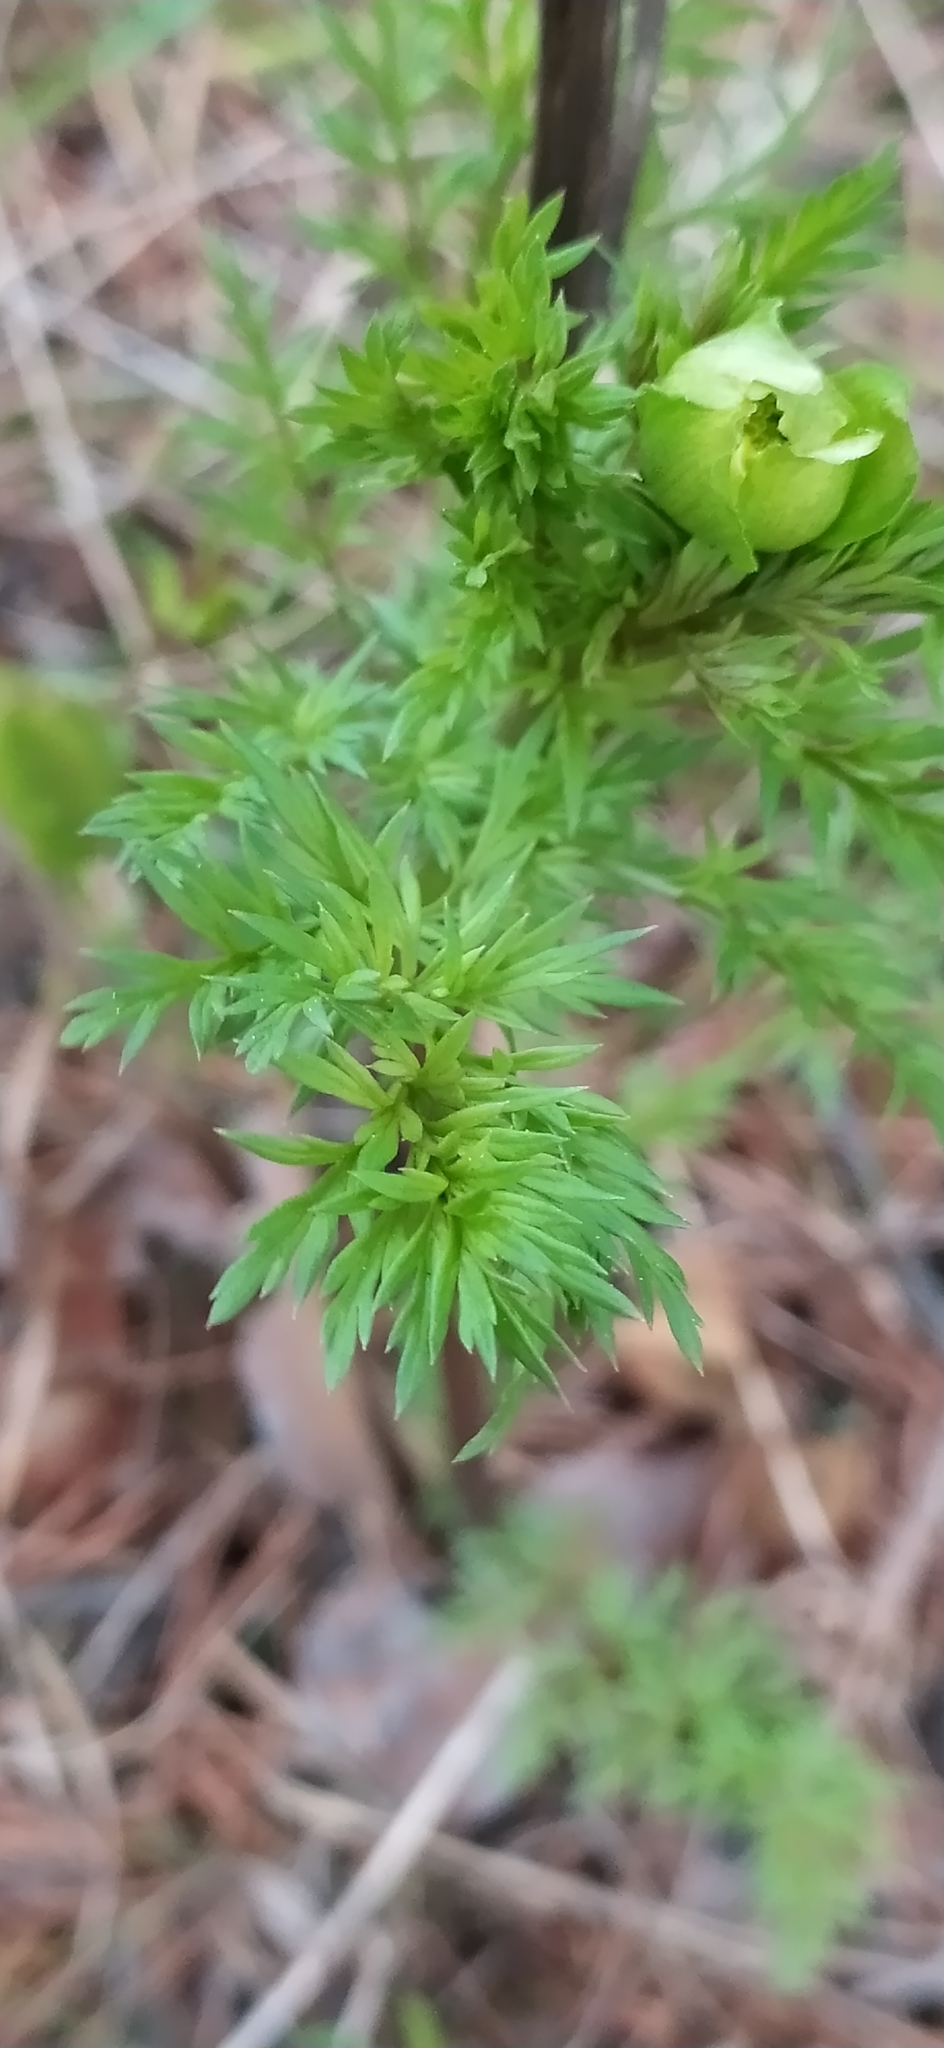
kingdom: Plantae
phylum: Tracheophyta
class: Magnoliopsida
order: Ranunculales
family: Ranunculaceae
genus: Adonis
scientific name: Adonis
